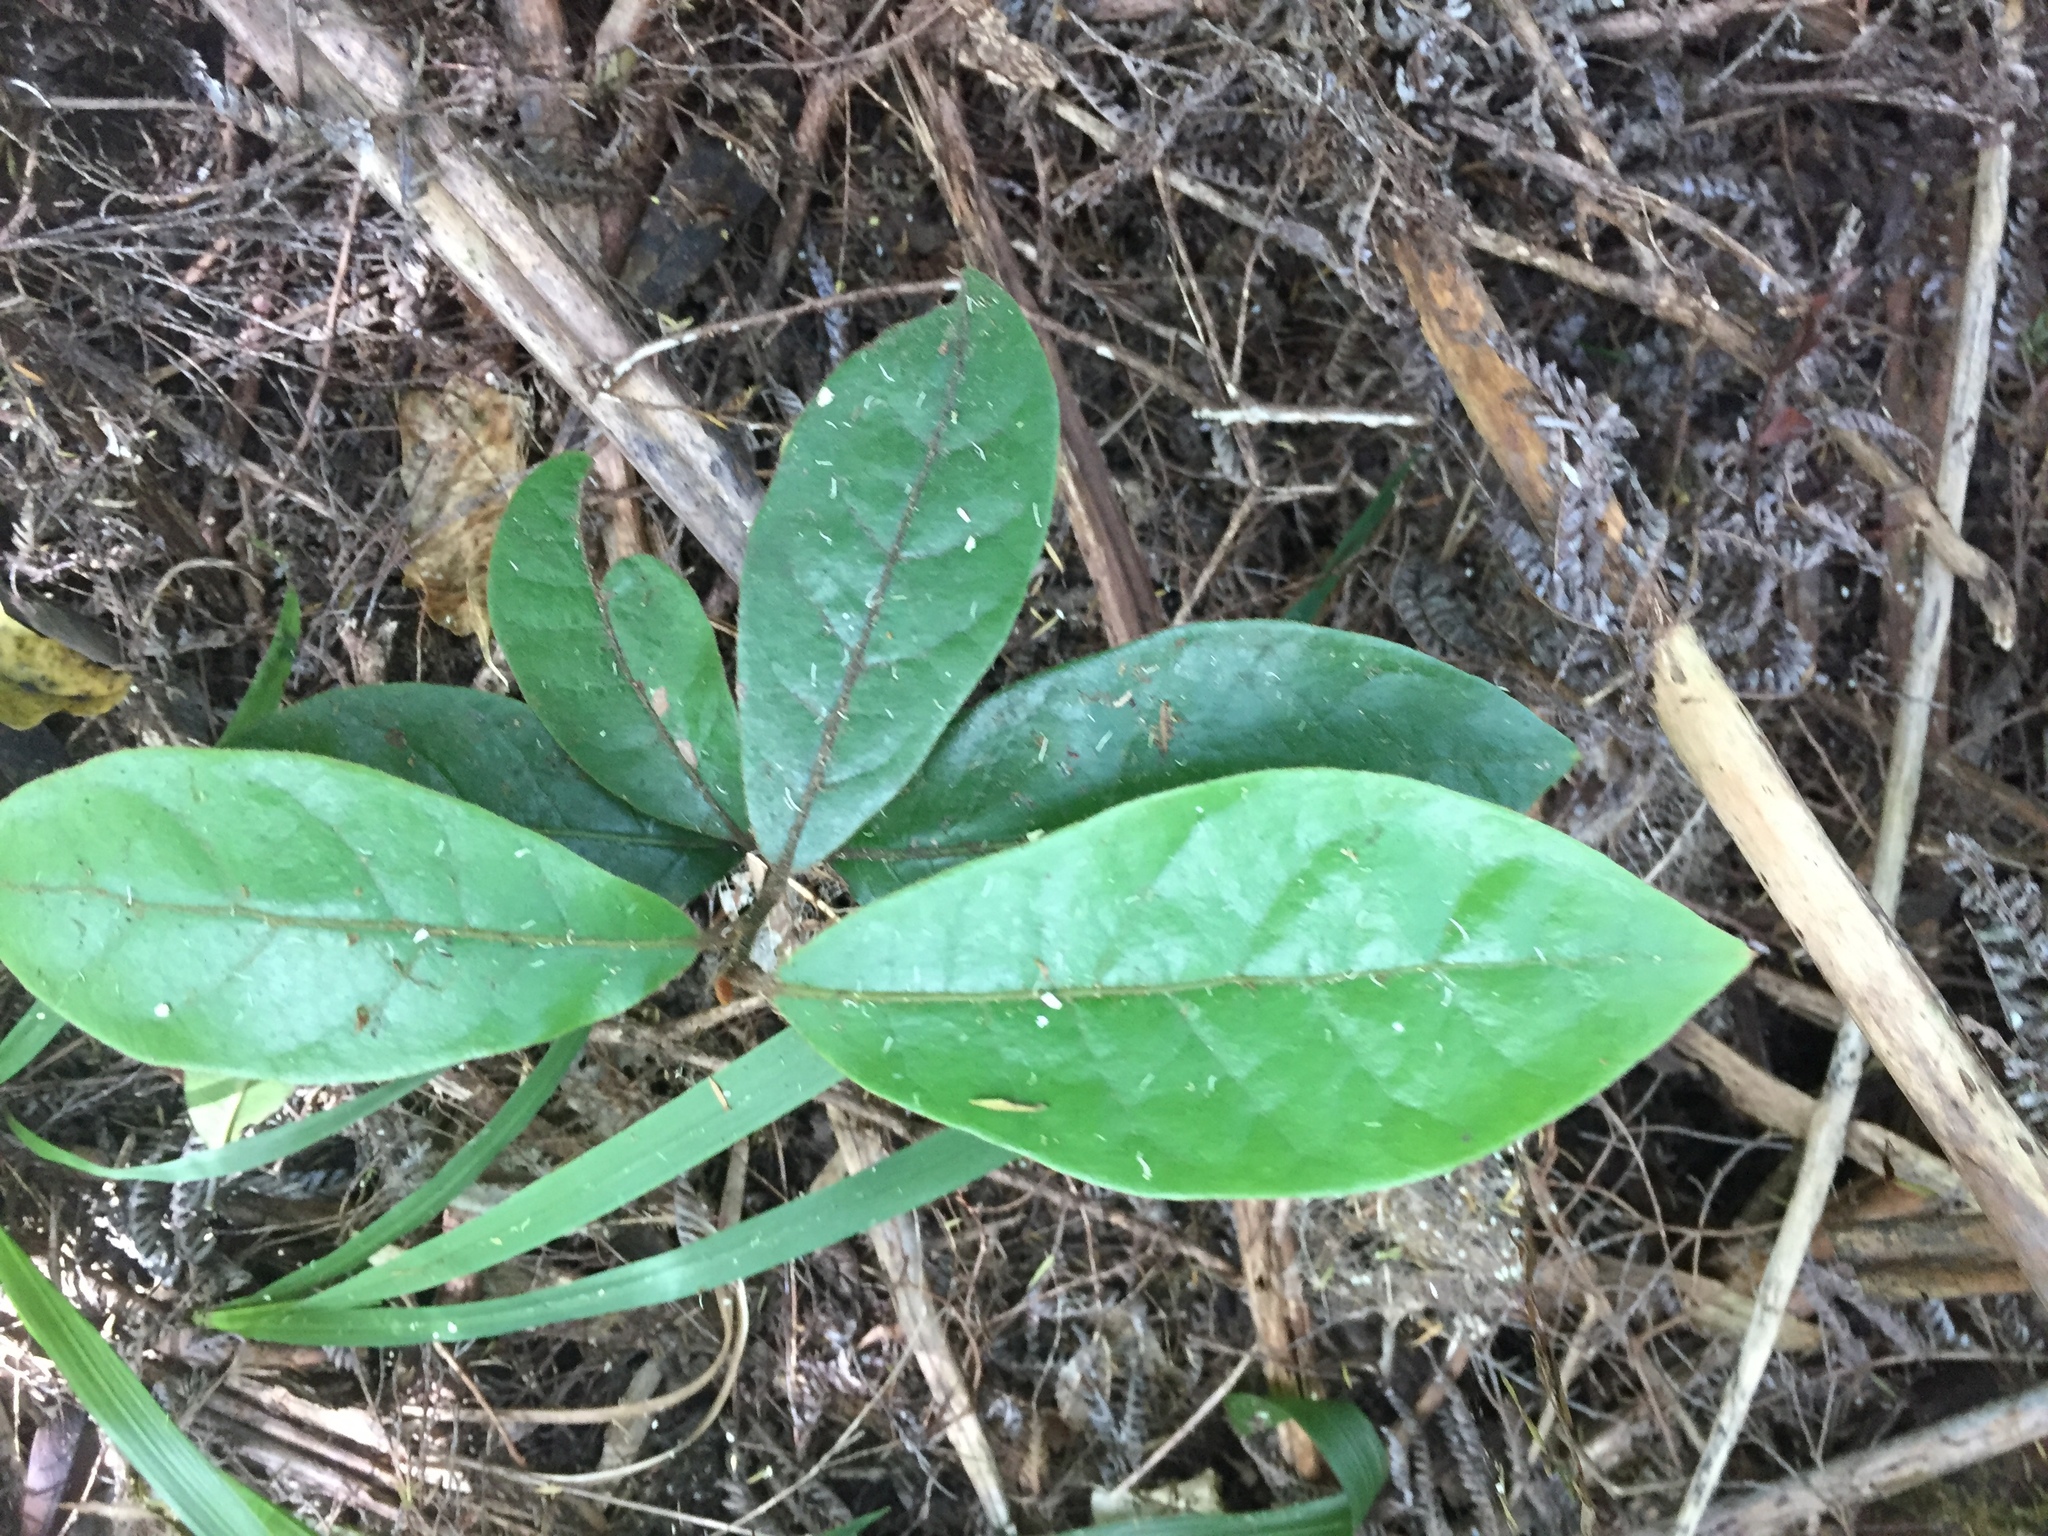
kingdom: Plantae
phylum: Tracheophyta
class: Magnoliopsida
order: Laurales
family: Lauraceae
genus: Beilschmiedia
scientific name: Beilschmiedia tarairi
